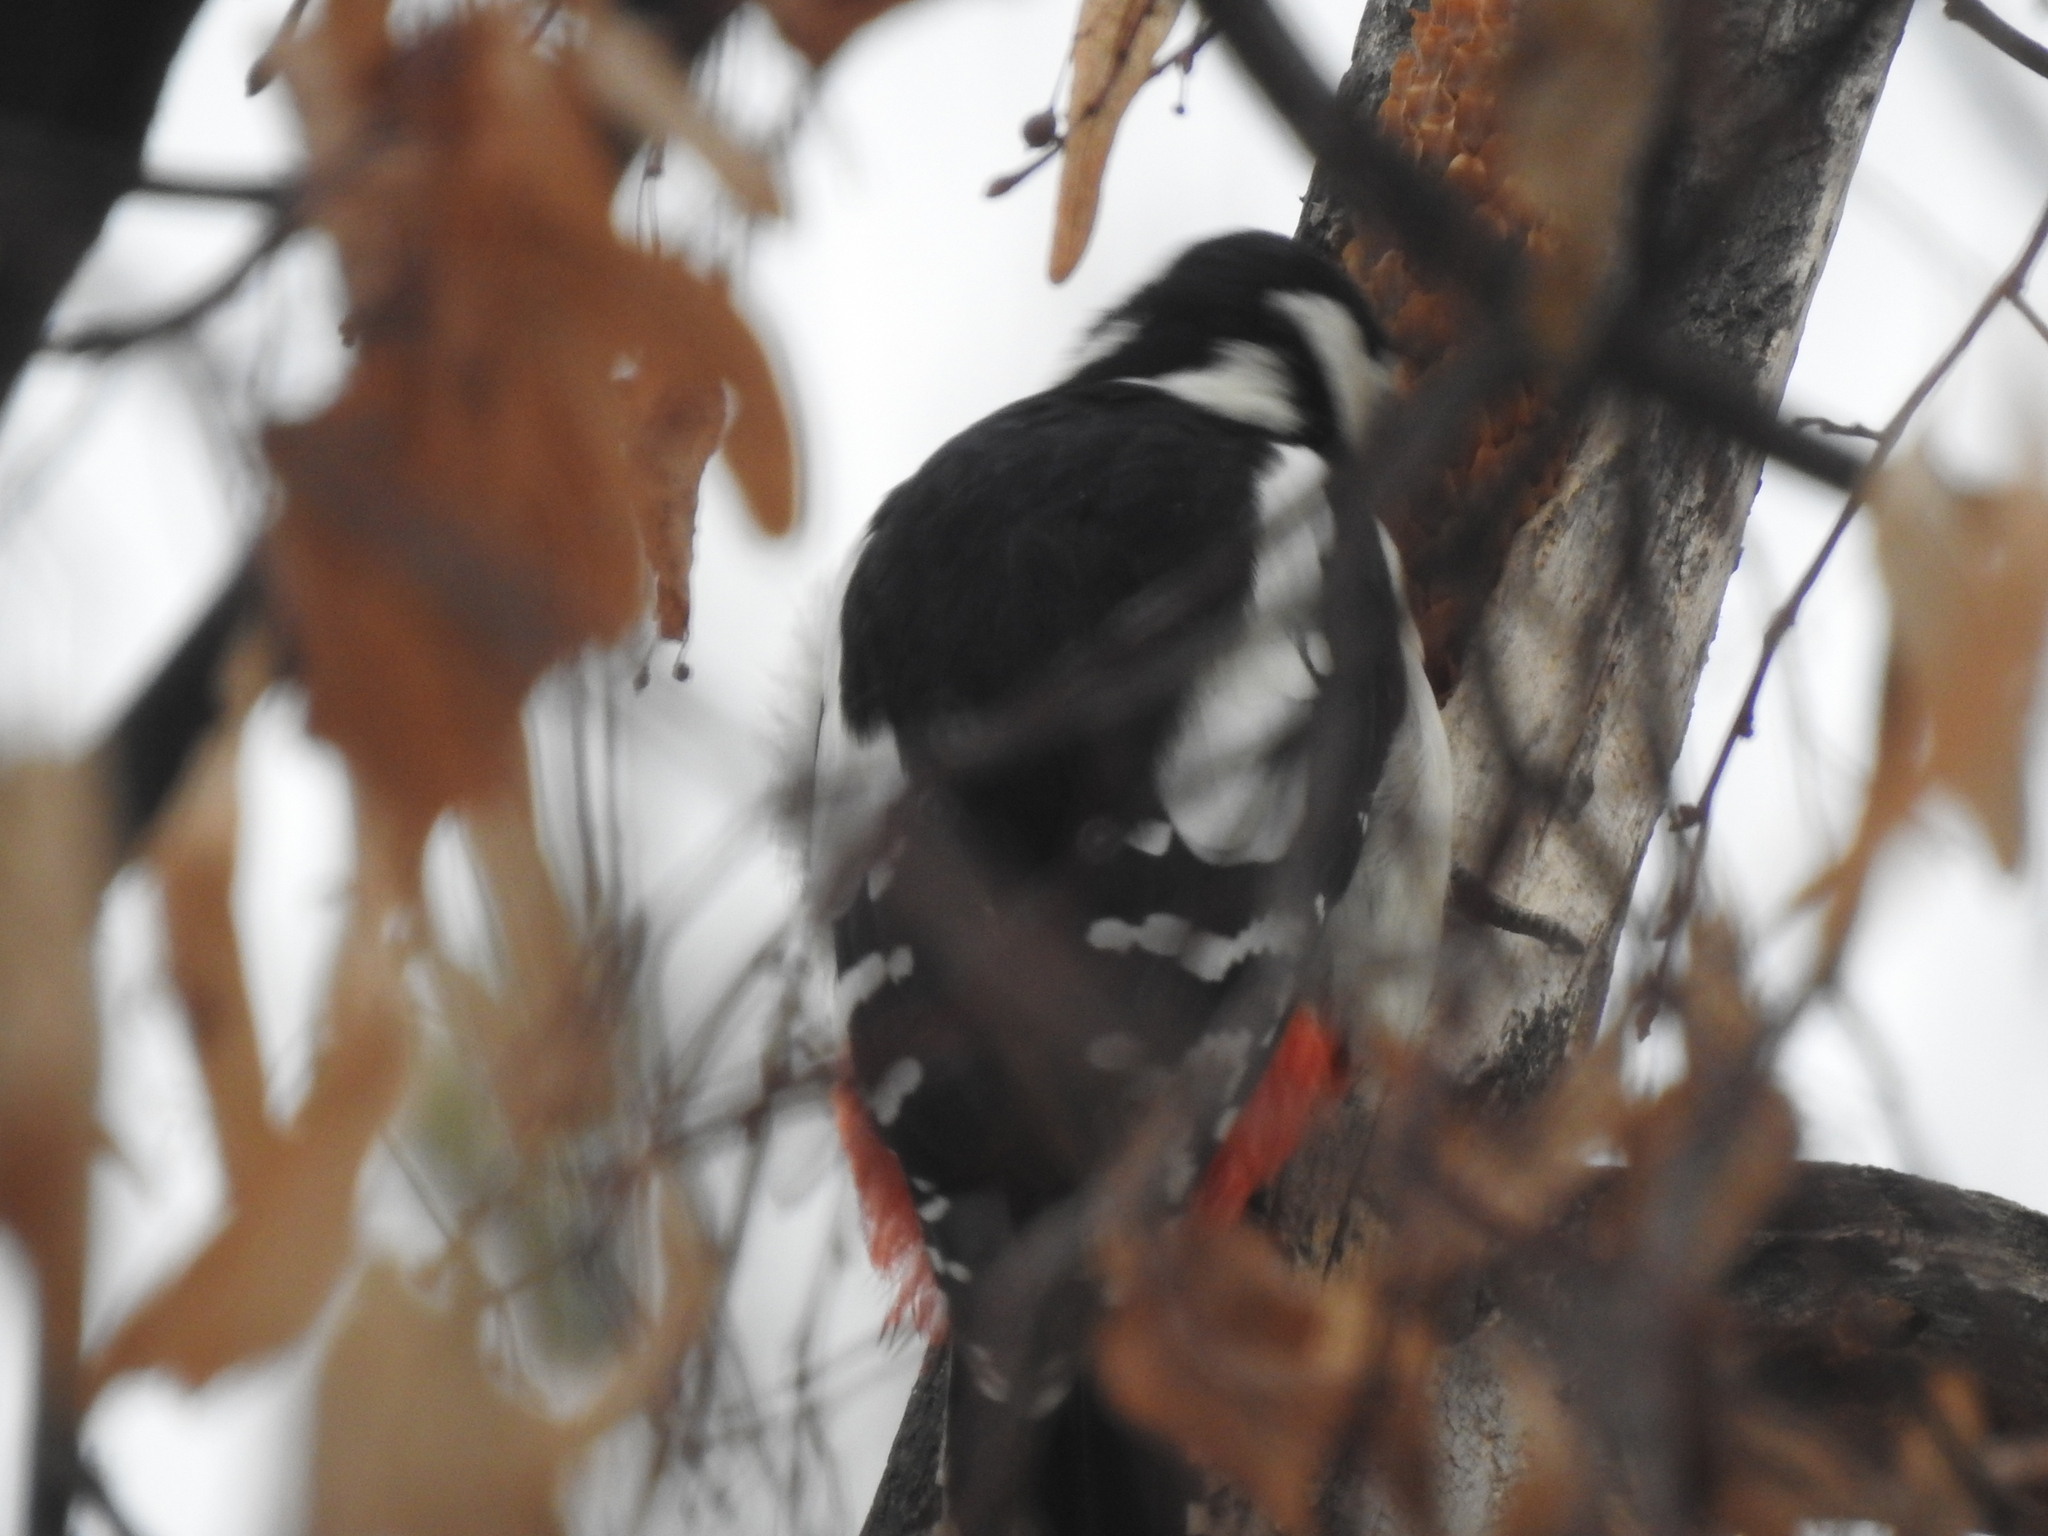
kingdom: Animalia
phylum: Chordata
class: Aves
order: Piciformes
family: Picidae
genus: Dendrocopos
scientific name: Dendrocopos major
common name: Great spotted woodpecker
